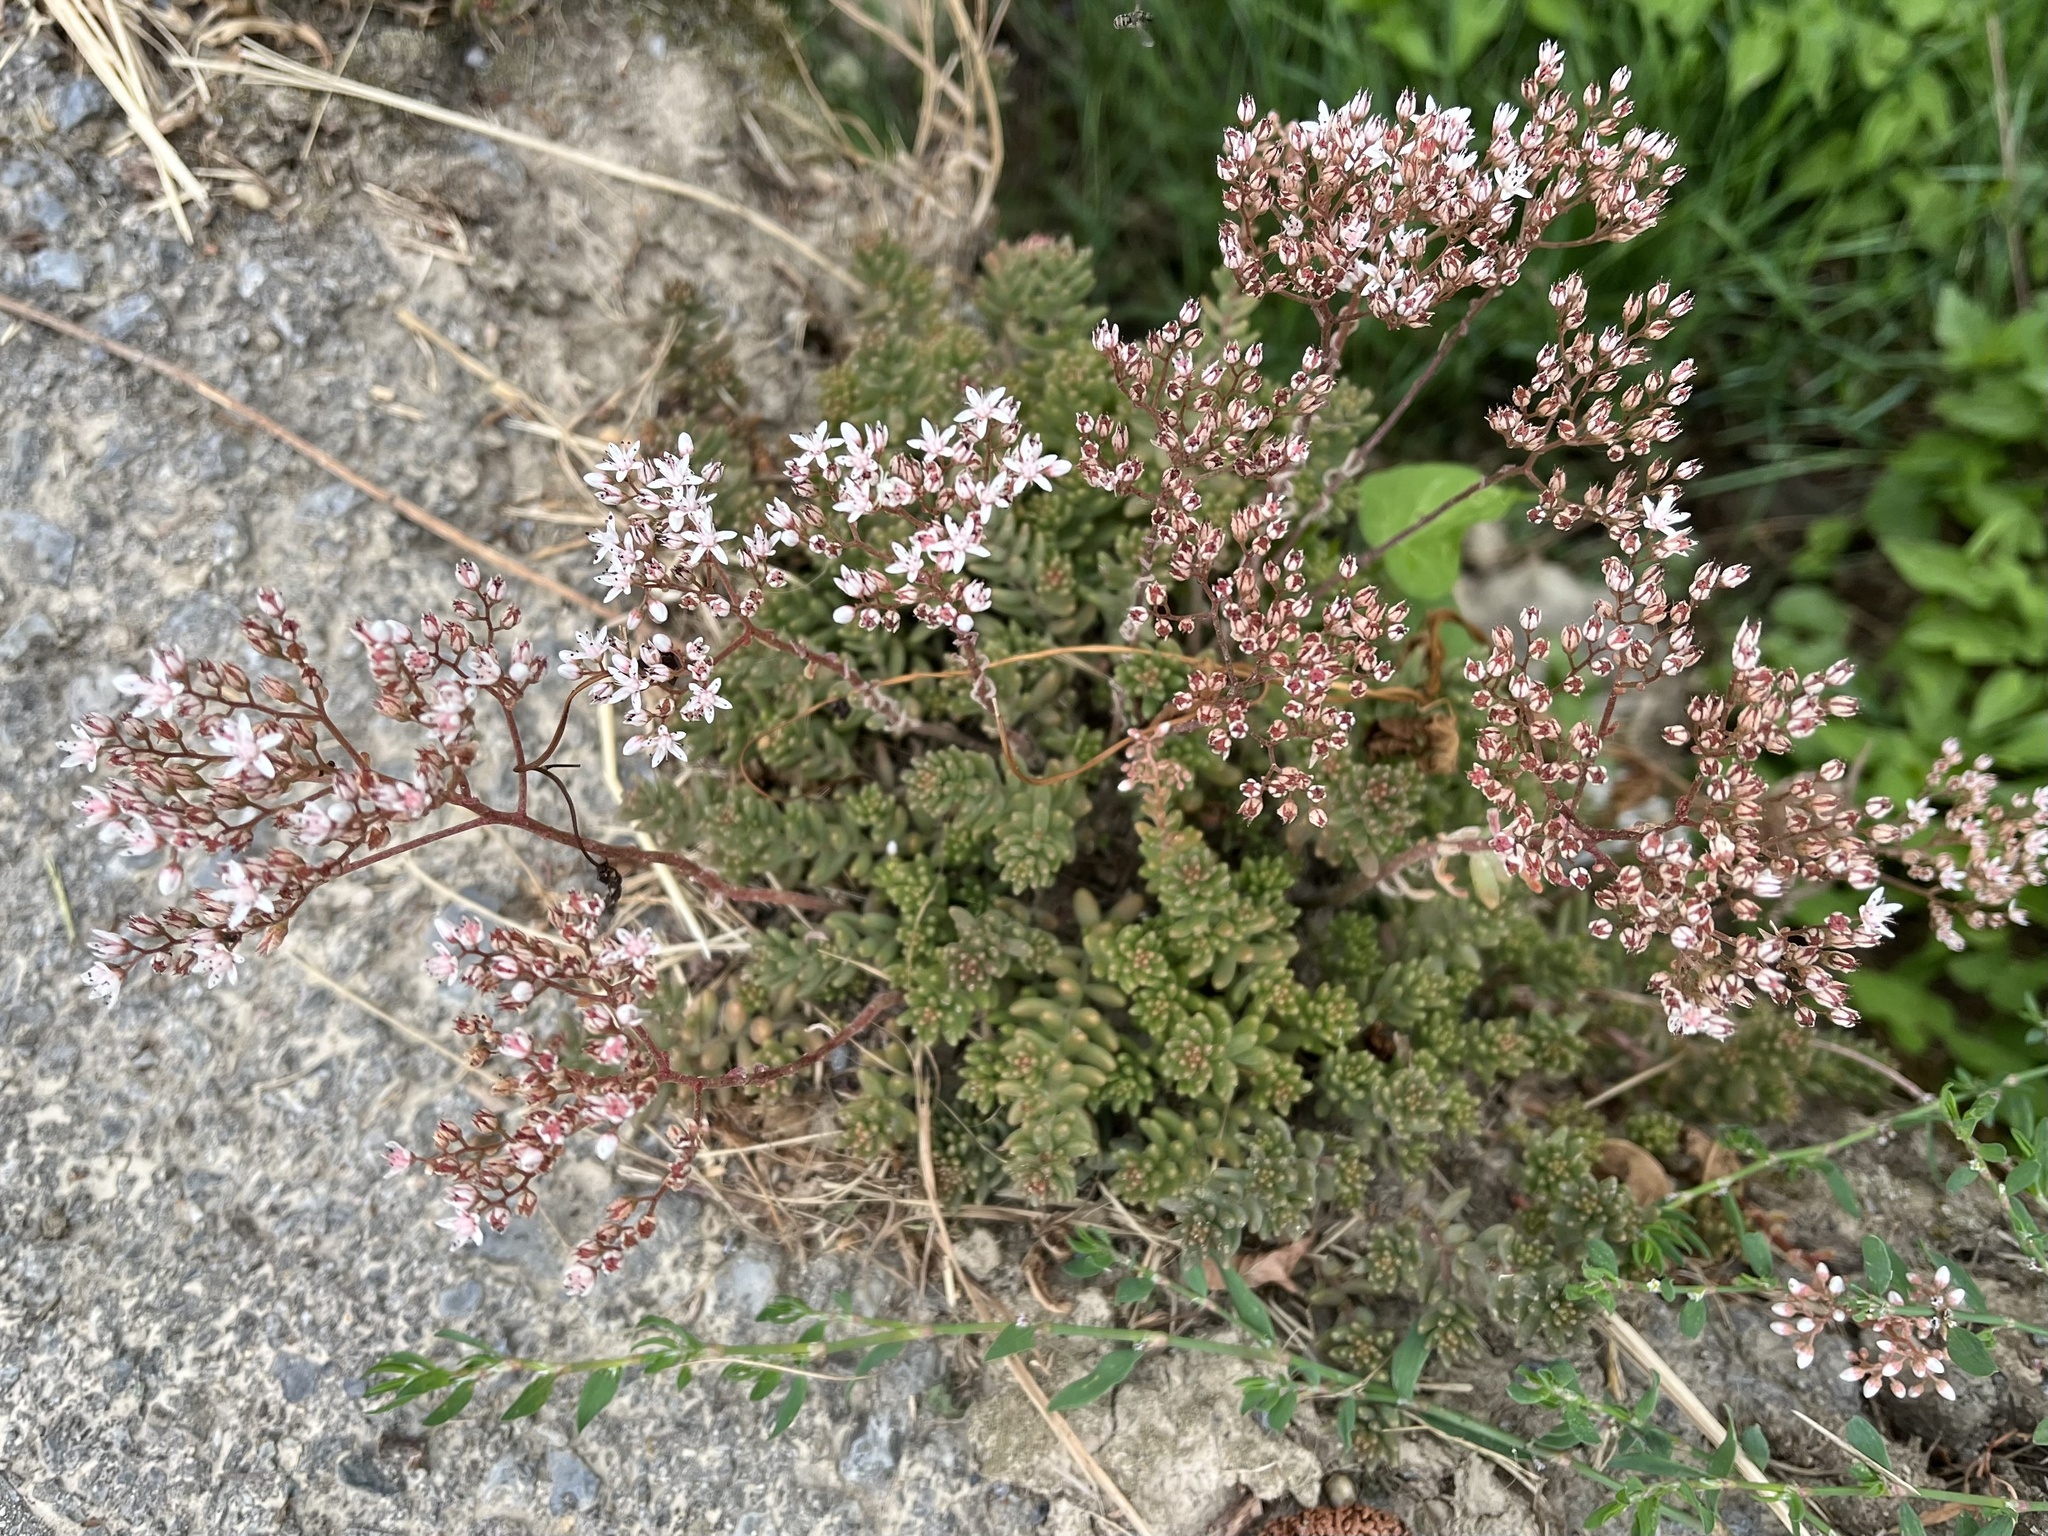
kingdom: Plantae
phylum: Tracheophyta
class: Magnoliopsida
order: Saxifragales
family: Crassulaceae
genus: Sedum
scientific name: Sedum album
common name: White stonecrop
